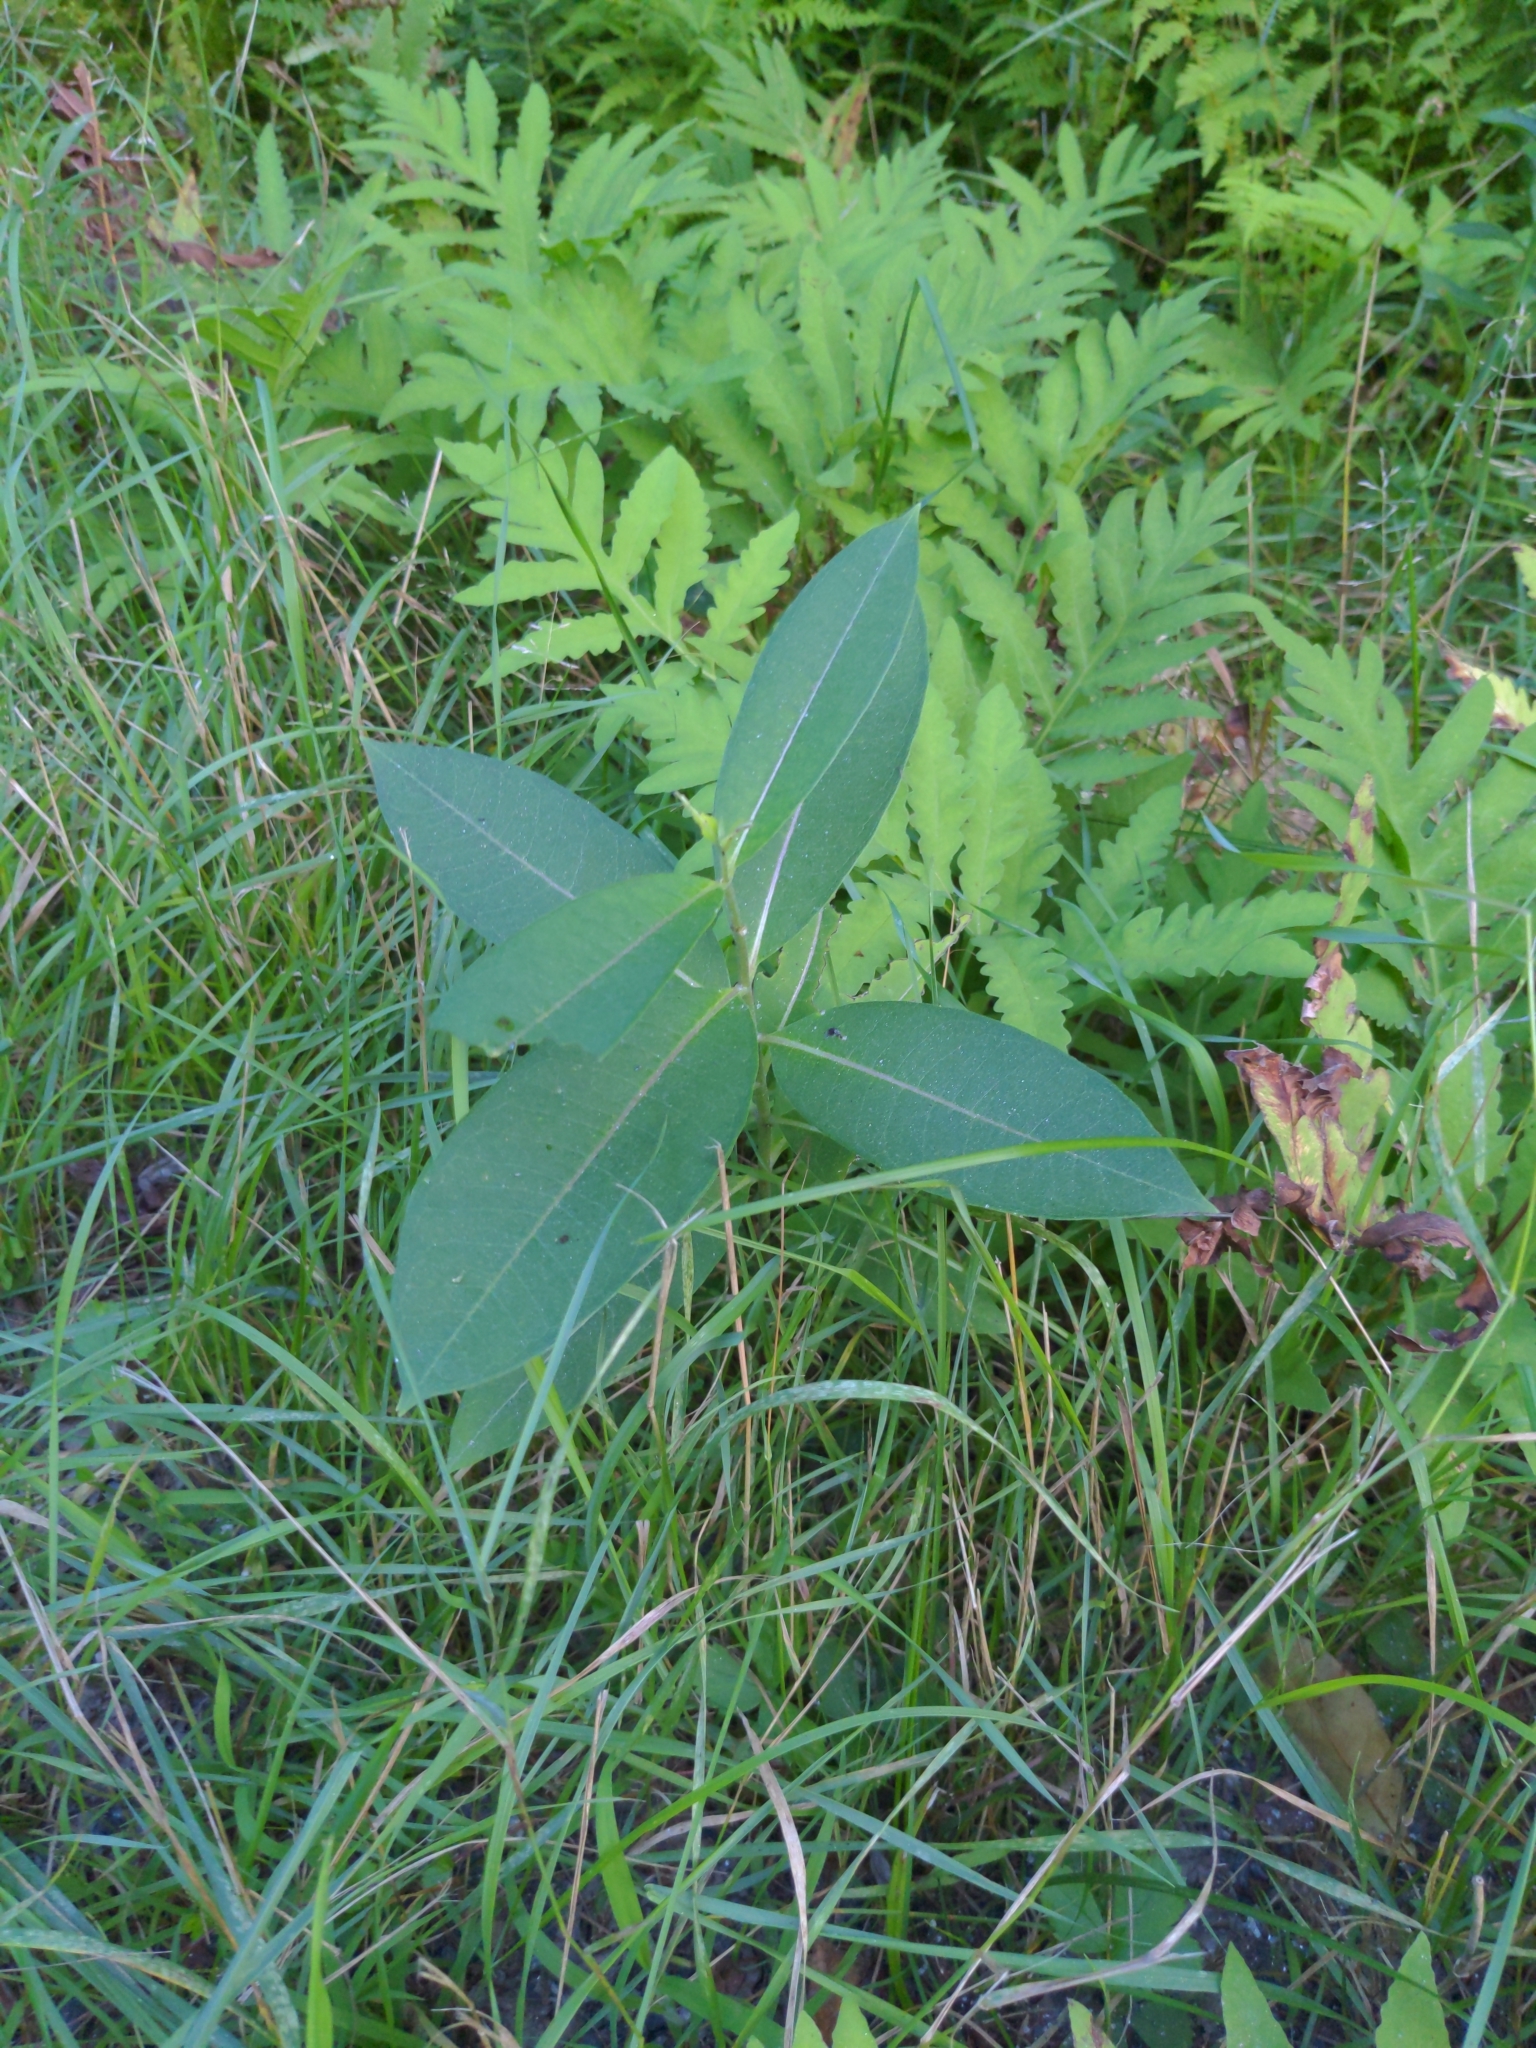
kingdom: Plantae
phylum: Tracheophyta
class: Magnoliopsida
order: Gentianales
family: Apocynaceae
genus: Asclepias
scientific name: Asclepias syriaca
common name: Common milkweed
